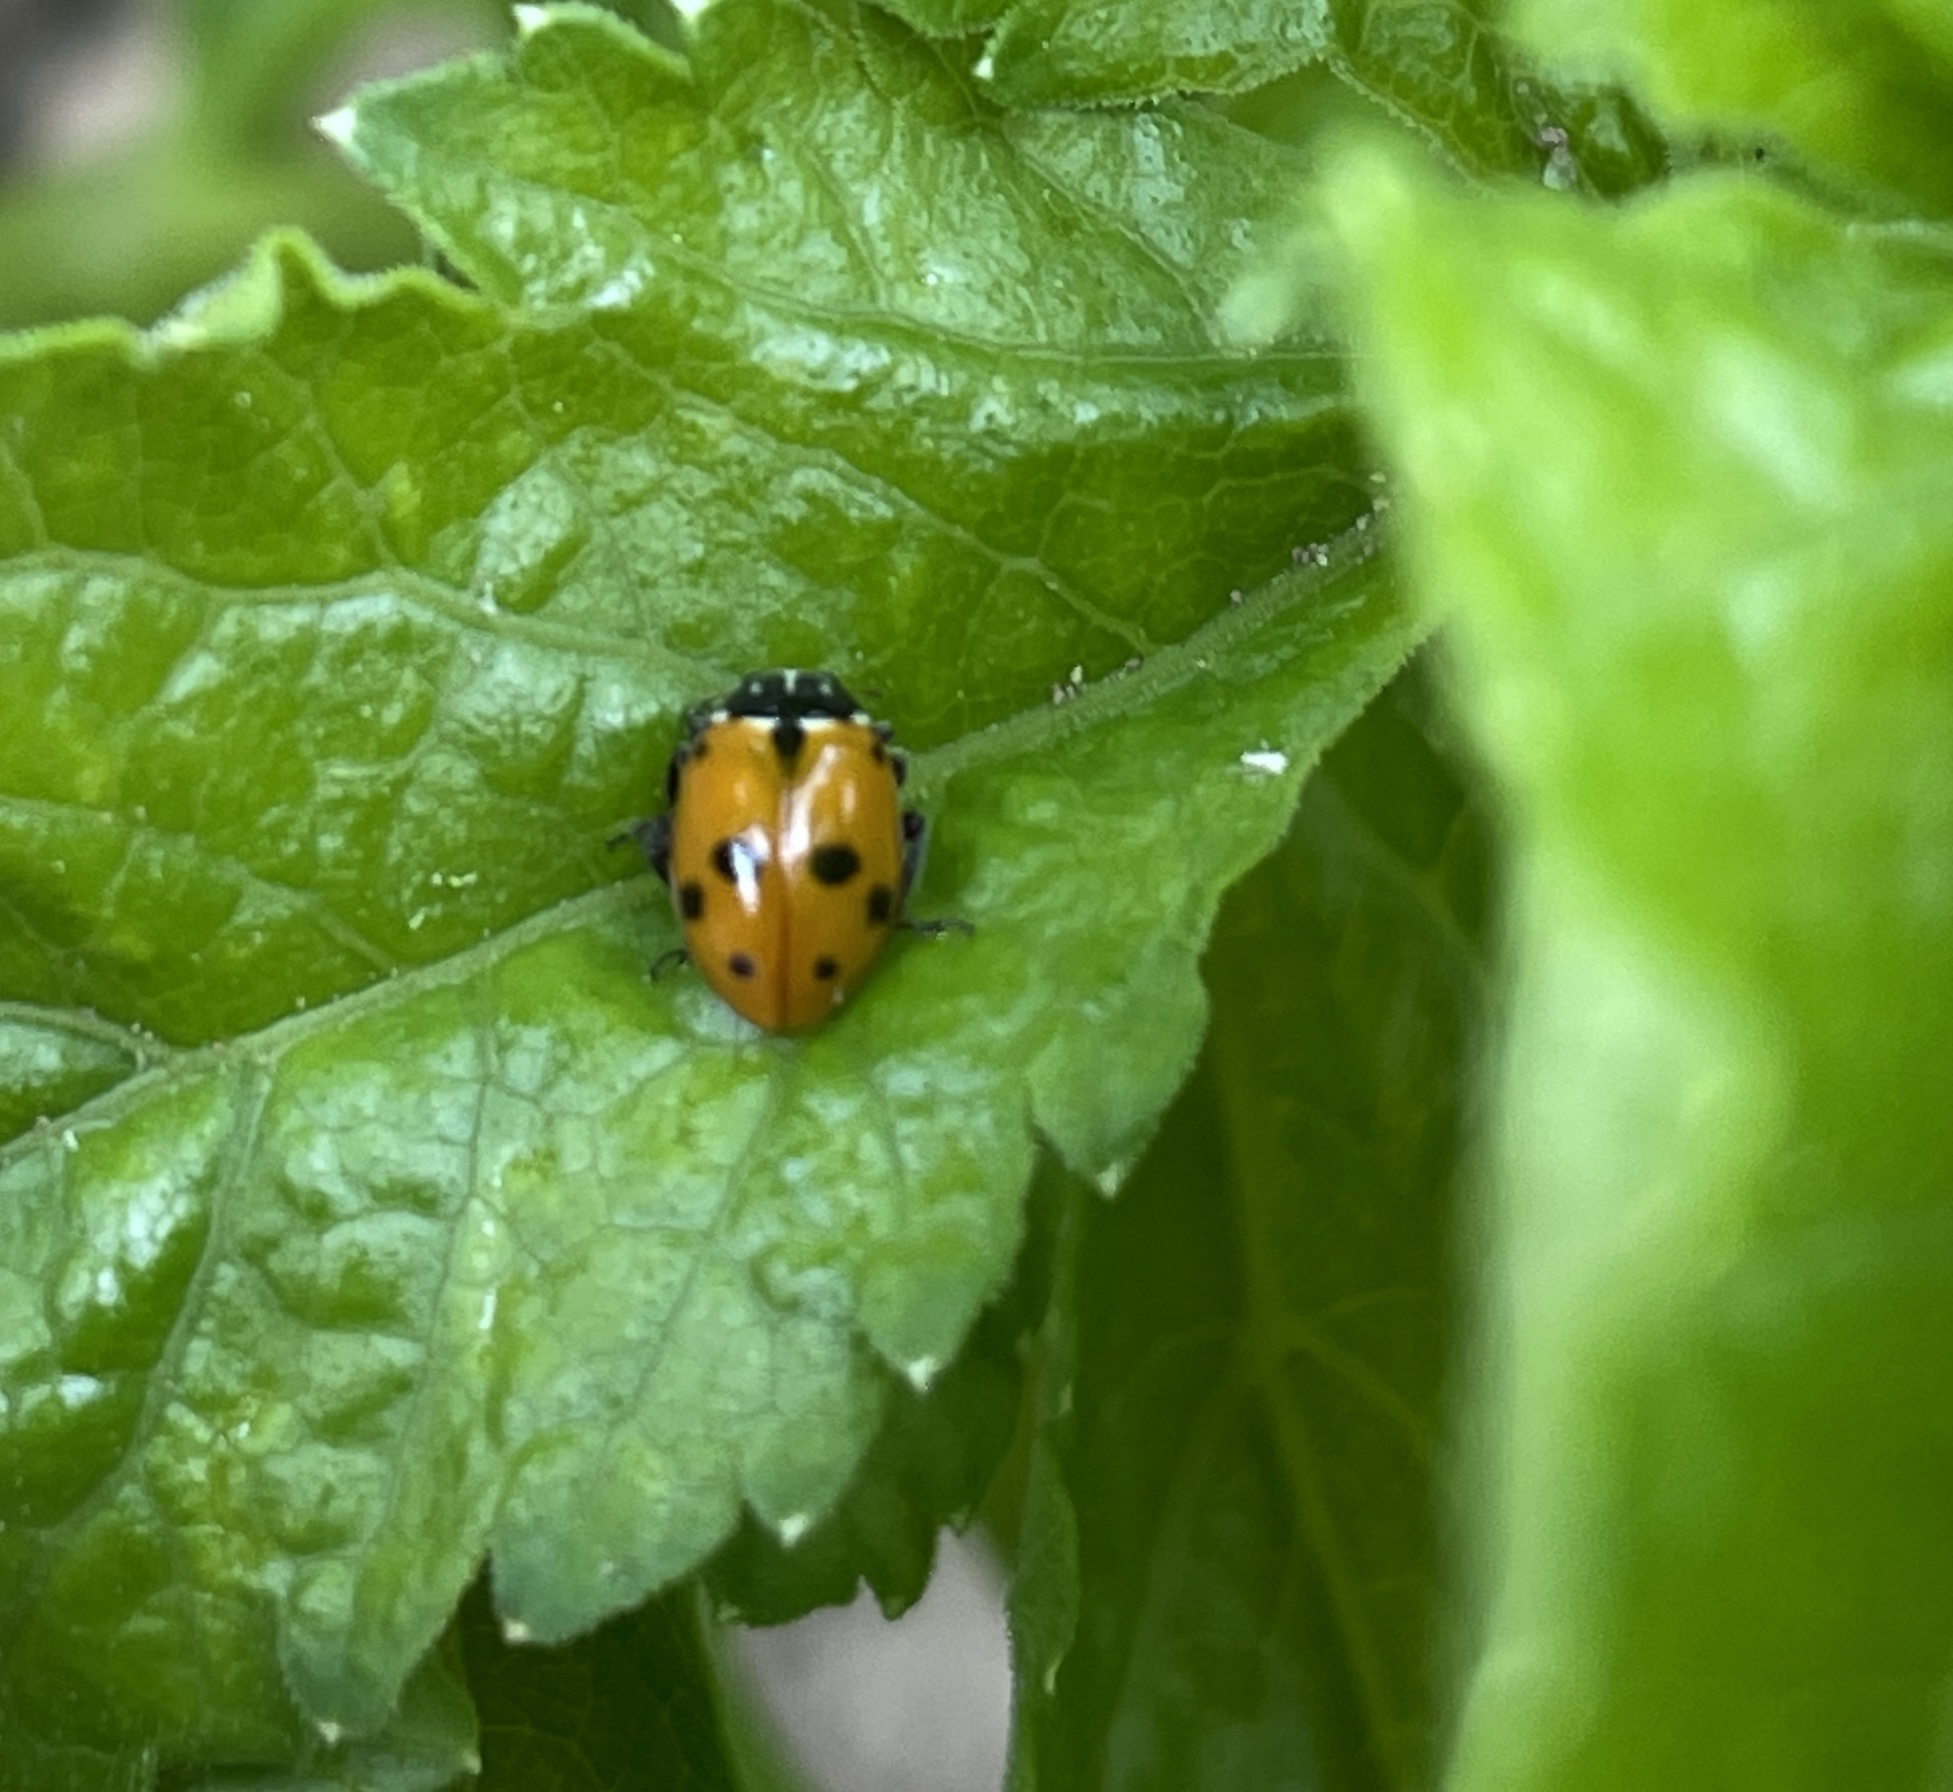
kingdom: Animalia
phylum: Arthropoda
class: Insecta
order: Coleoptera
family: Coccinellidae
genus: Hippodamia
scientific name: Hippodamia variegata
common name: Ladybird beetle
